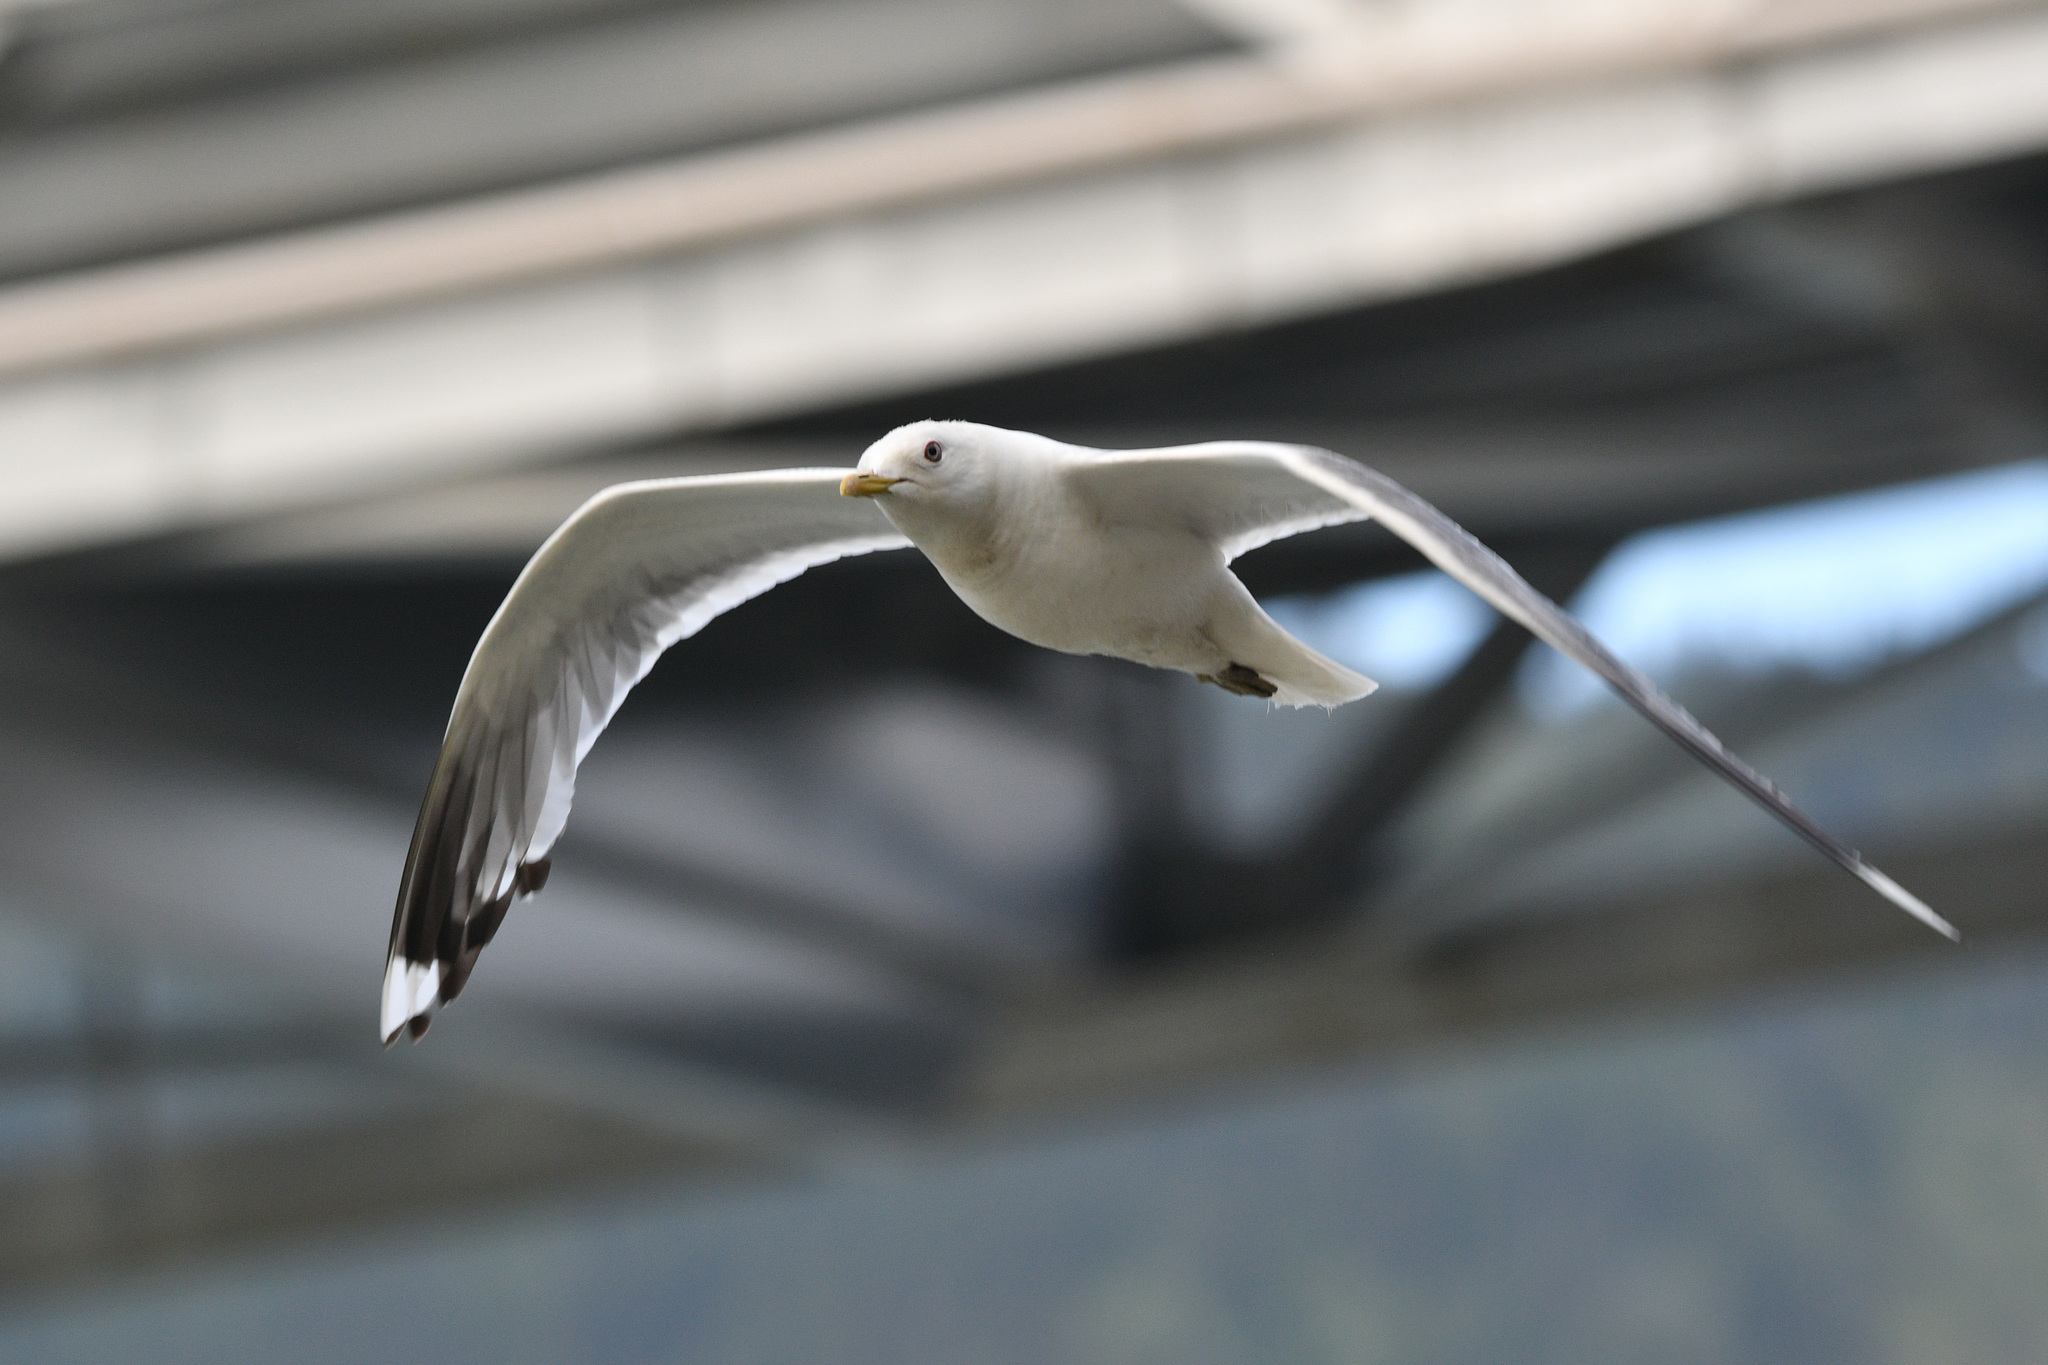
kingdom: Animalia
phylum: Chordata
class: Aves
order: Charadriiformes
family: Laridae
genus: Larus
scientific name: Larus brachyrhynchus
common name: Short-billed gull
